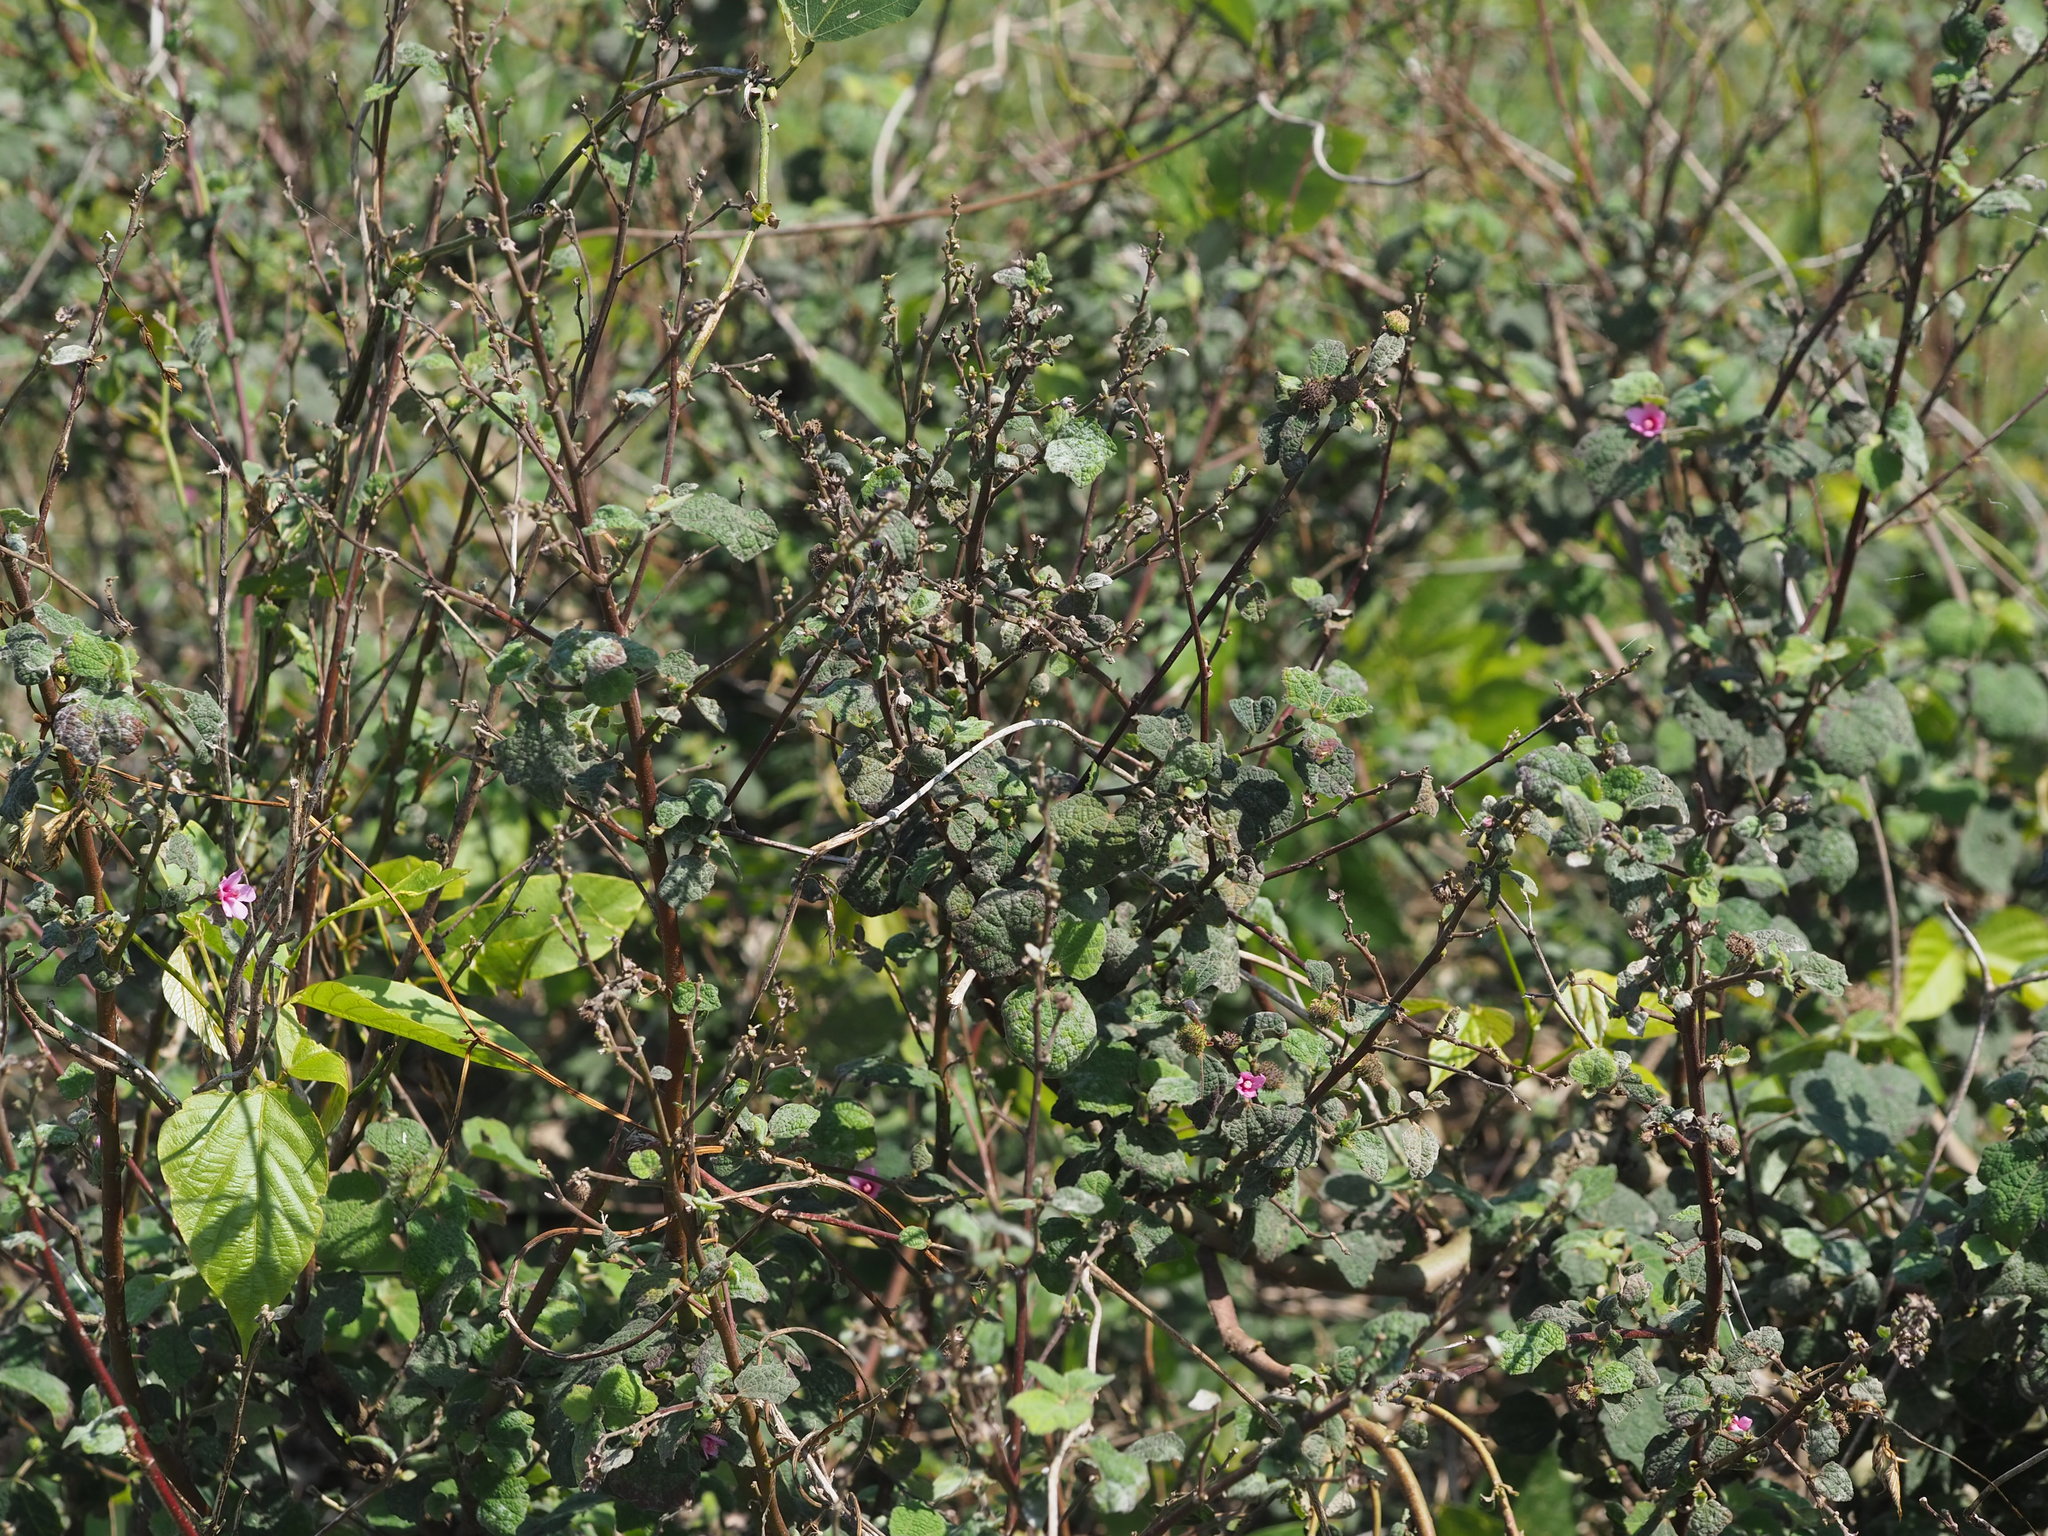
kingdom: Plantae
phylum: Tracheophyta
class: Magnoliopsida
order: Malvales
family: Malvaceae
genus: Urena
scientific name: Urena lobata
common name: Caesarweed
